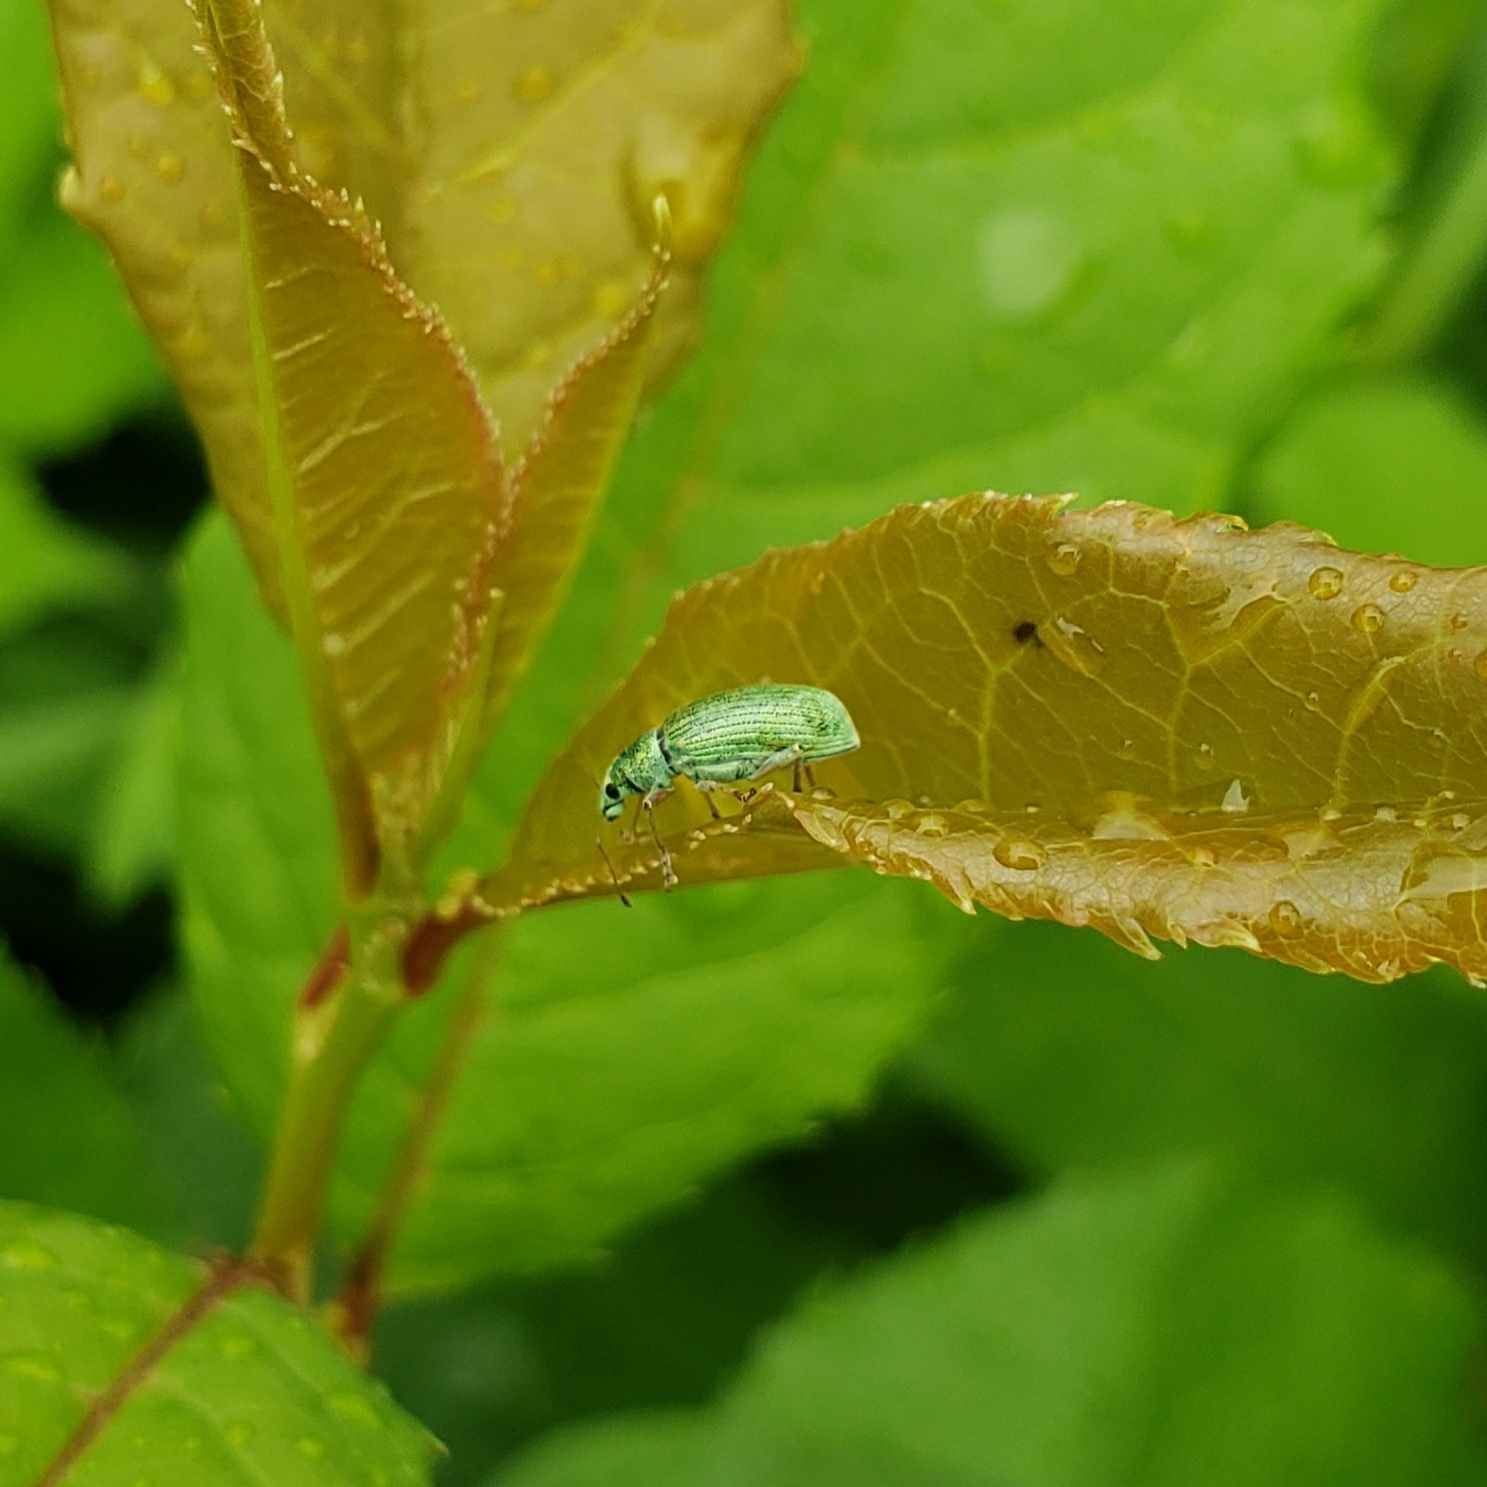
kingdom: Animalia
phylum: Arthropoda
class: Insecta
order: Coleoptera
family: Curculionidae
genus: Polydrusus
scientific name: Polydrusus formosus
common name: Weevil
